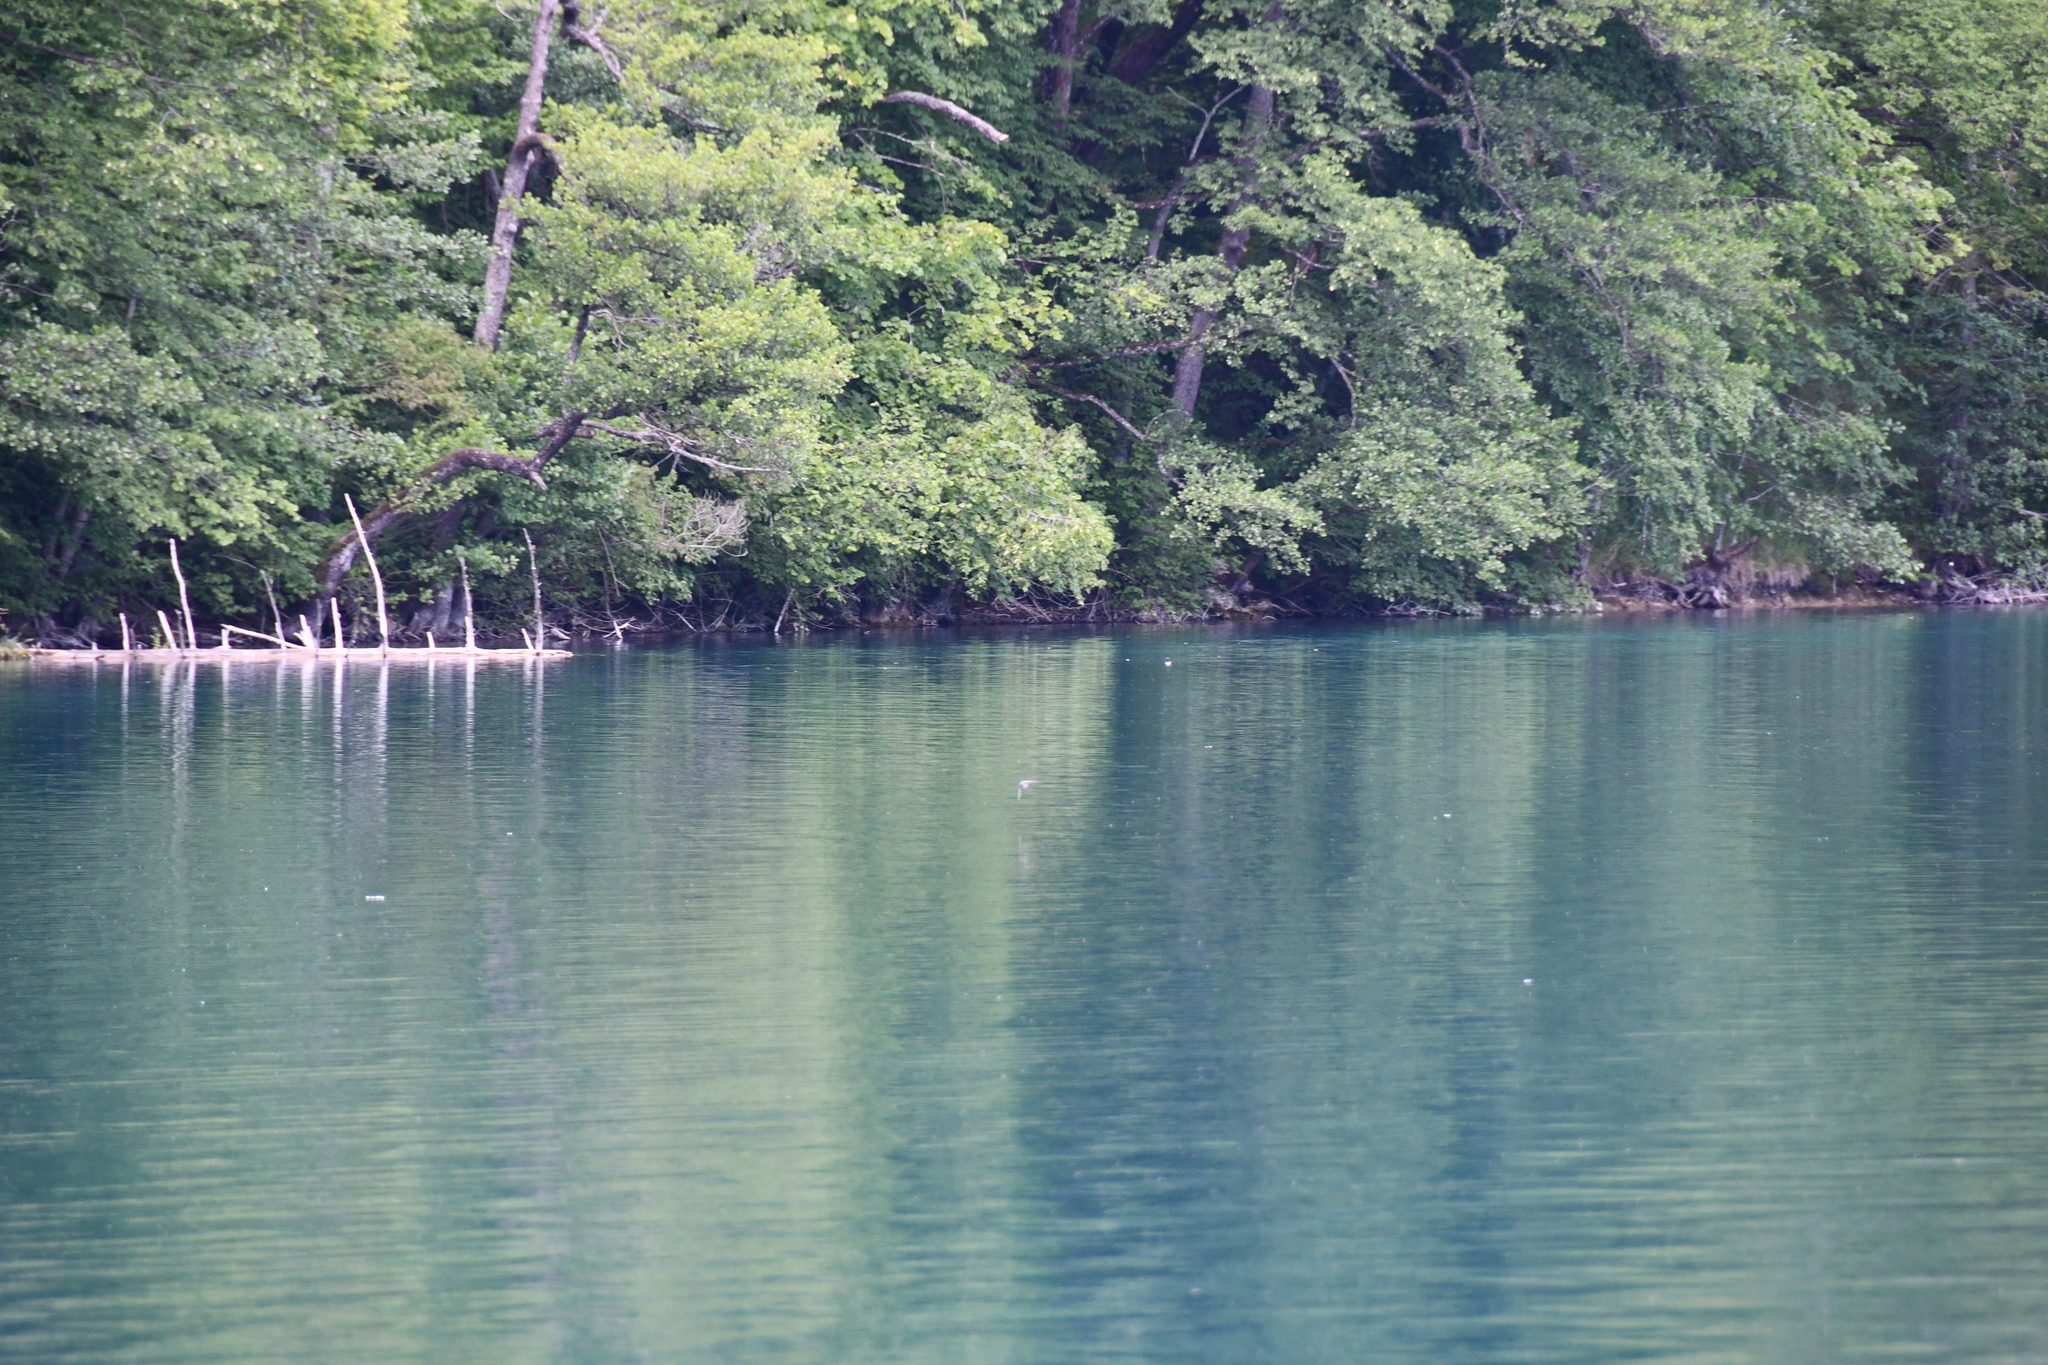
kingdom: Animalia
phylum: Chordata
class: Aves
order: Passeriformes
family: Hirundinidae
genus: Hirundo
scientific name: Hirundo rustica
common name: Barn swallow
